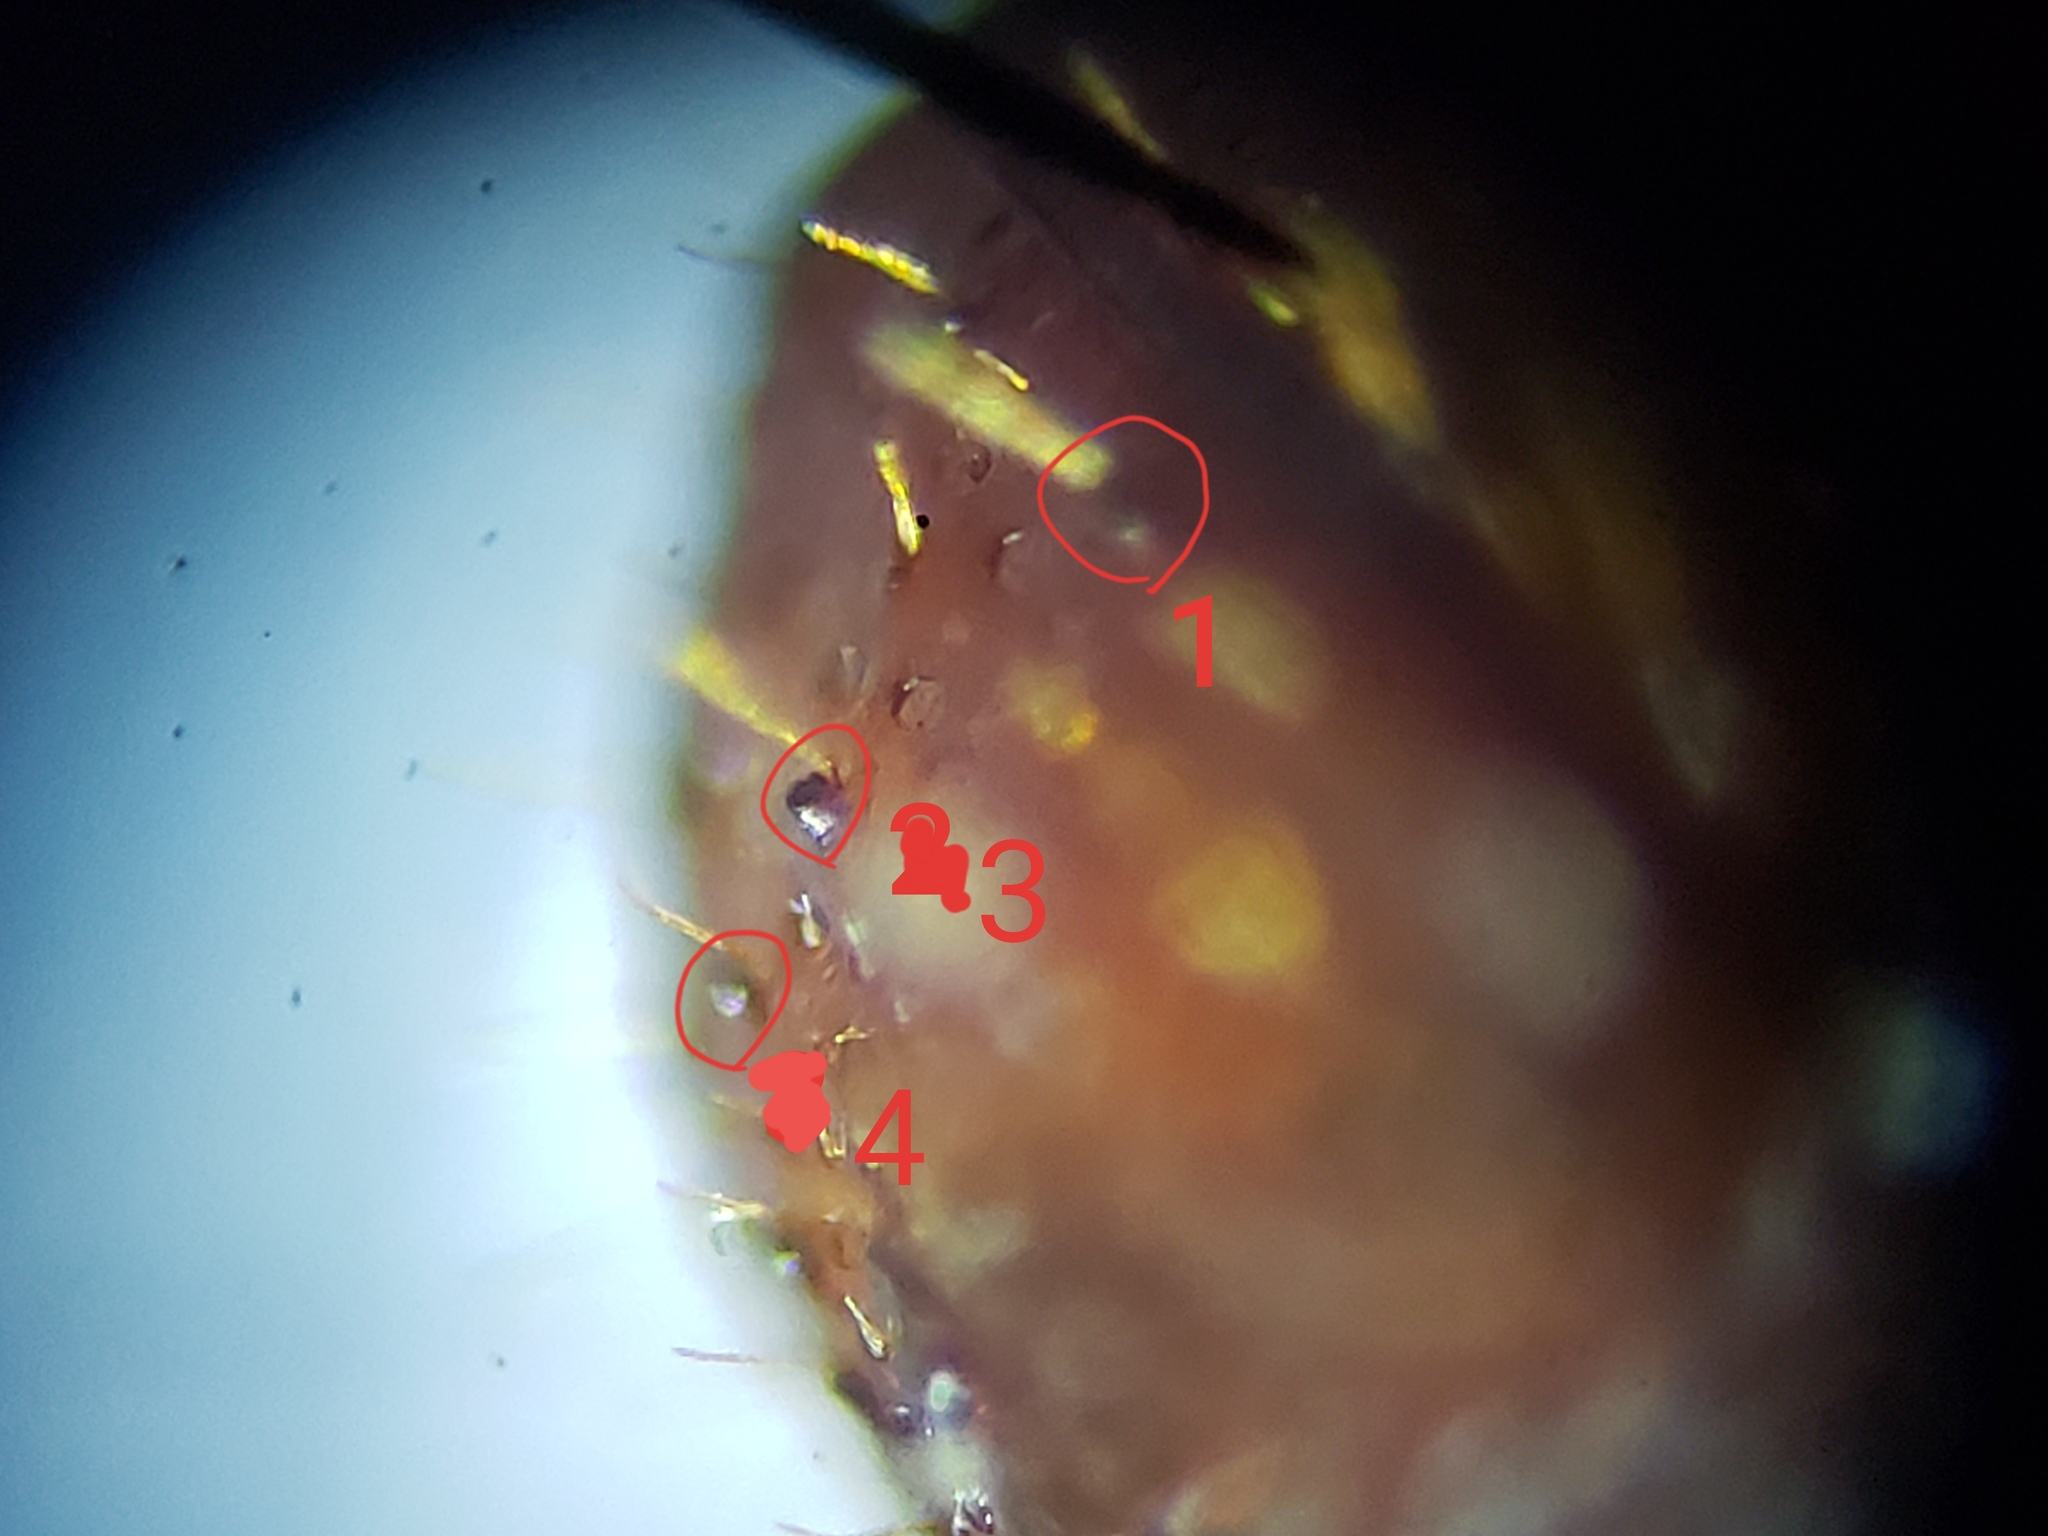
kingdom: Animalia
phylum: Arthropoda
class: Insecta
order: Coleoptera
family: Curculionidae
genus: Xyleborus
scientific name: Xyleborus volvulus
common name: Bark beetle
